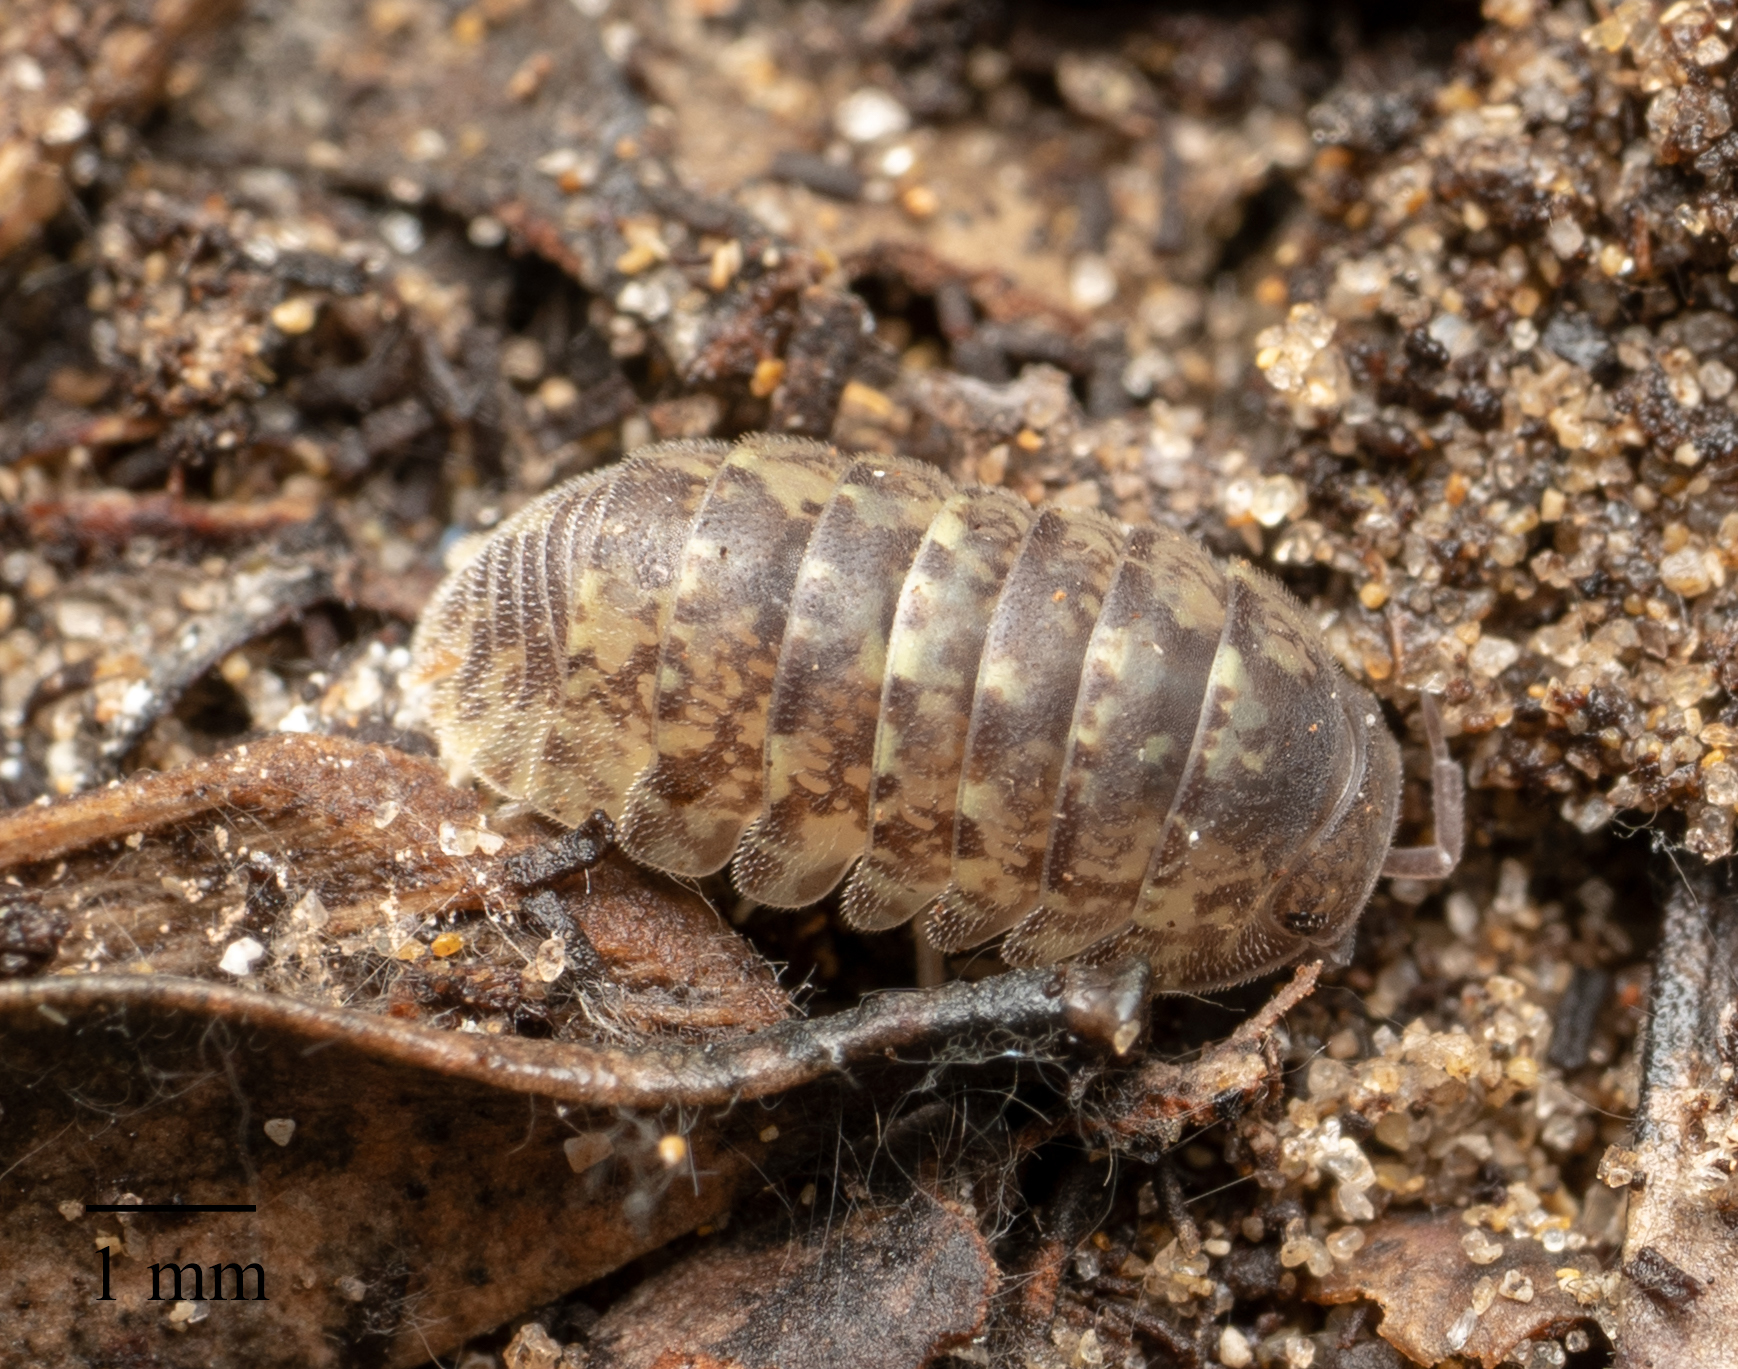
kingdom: Animalia
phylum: Arthropoda
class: Malacostraca
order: Isopoda
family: Armadillidae
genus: Cubaroides
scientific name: Cubaroides pilosus
